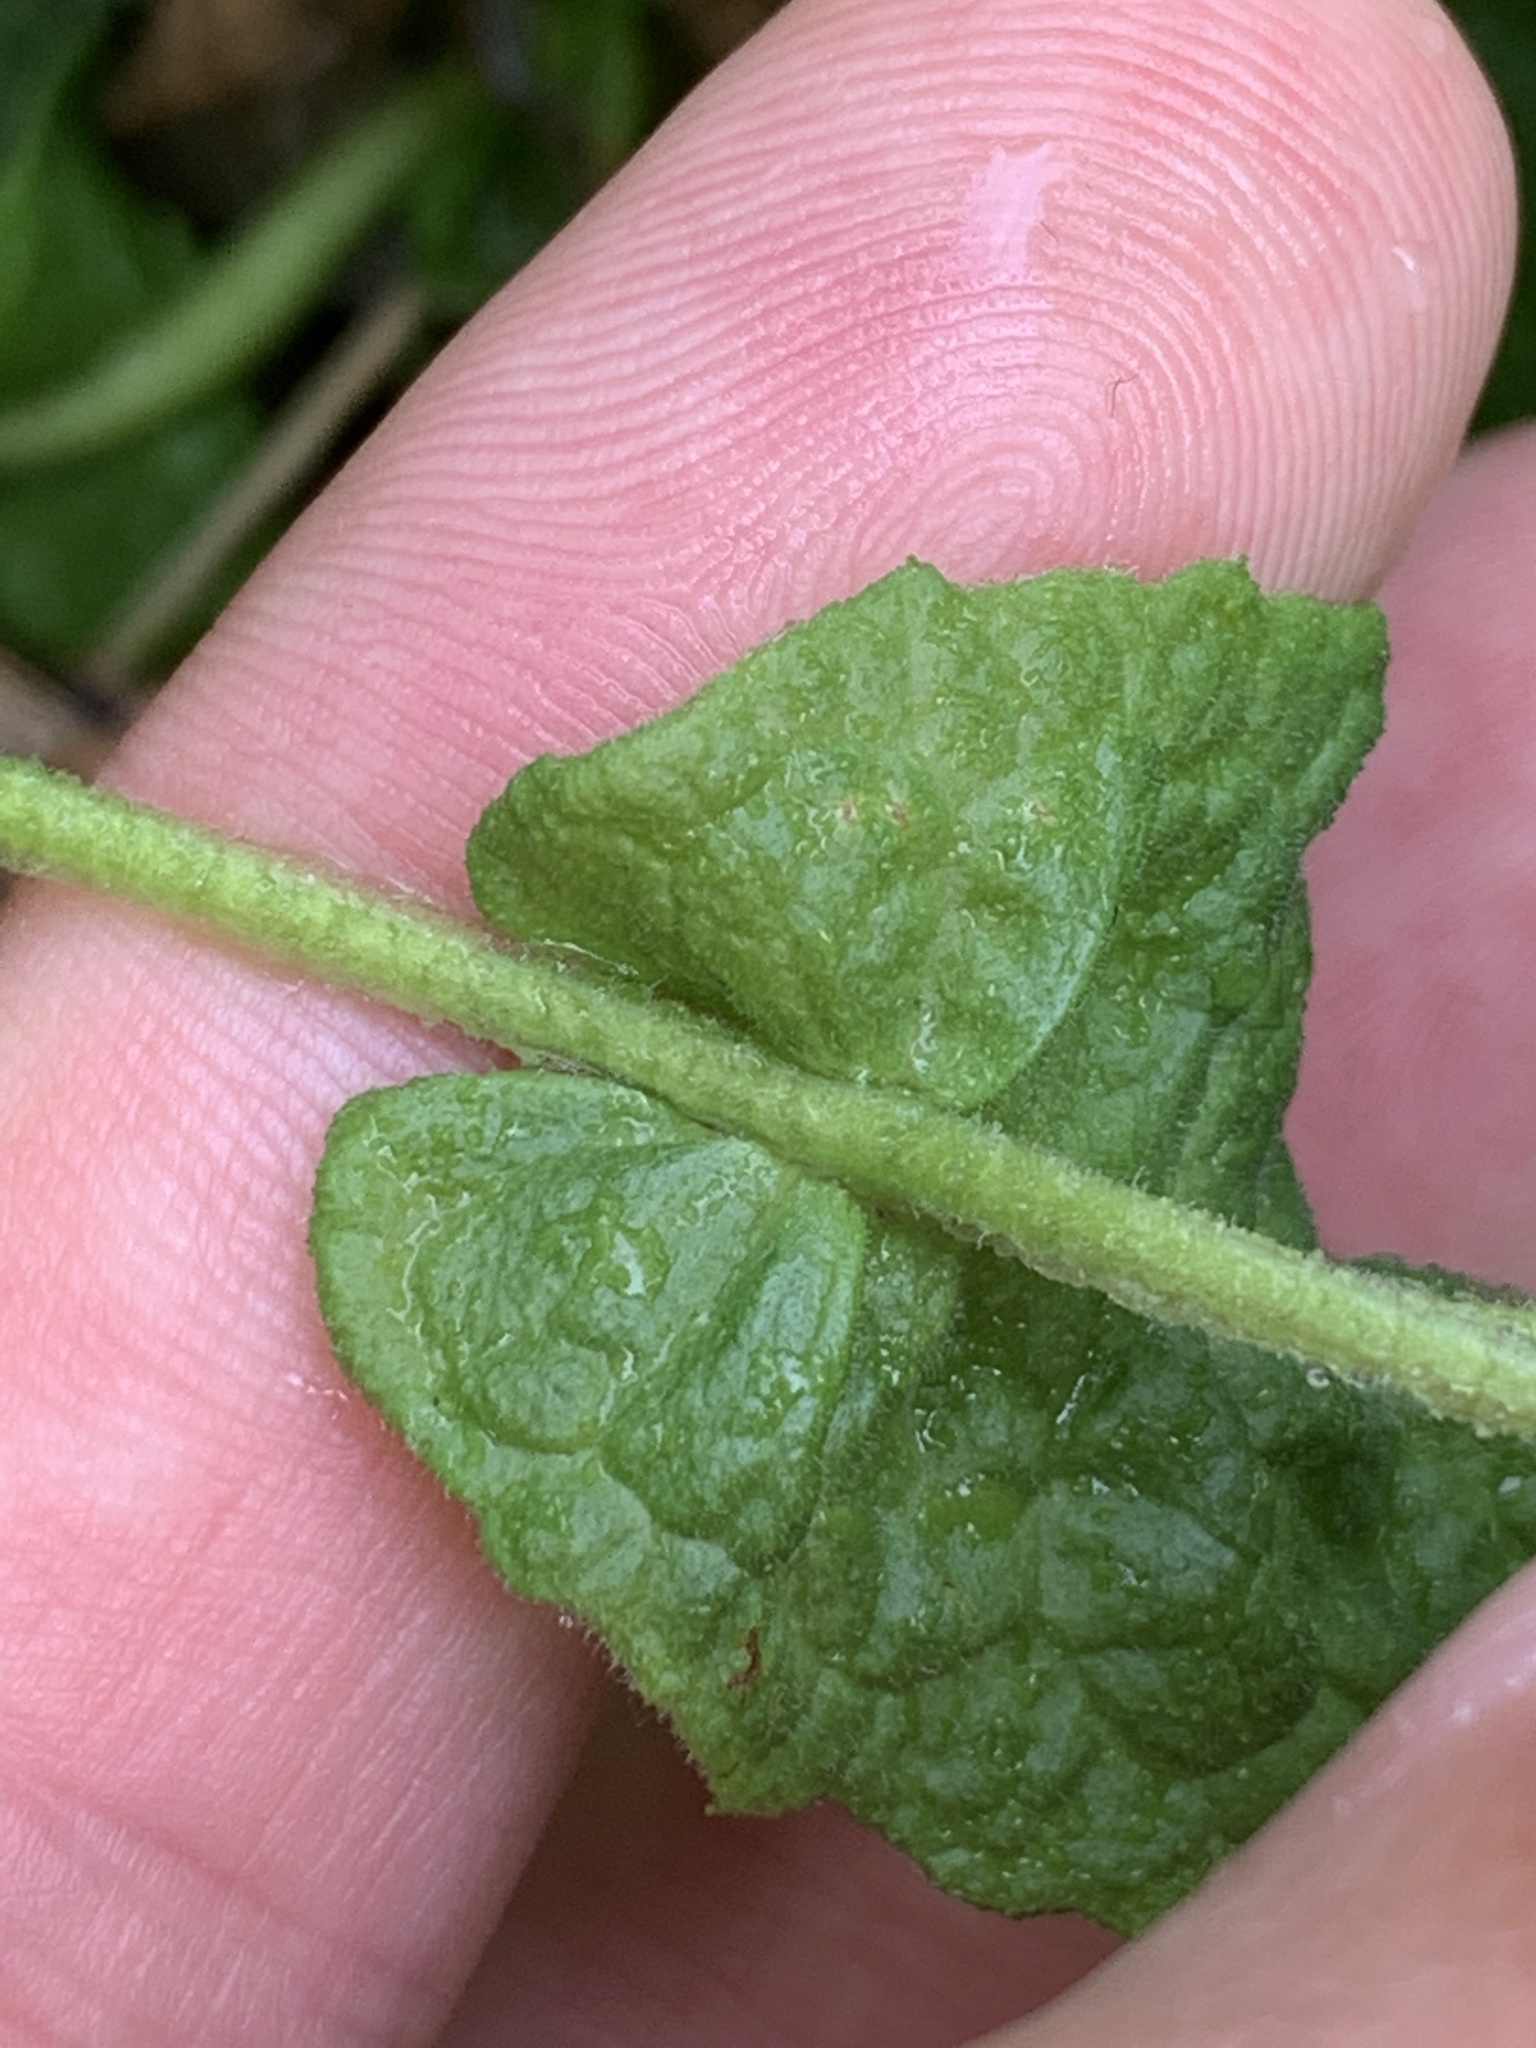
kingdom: Plantae
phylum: Tracheophyta
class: Magnoliopsida
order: Asterales
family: Asteraceae
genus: Pulicaria
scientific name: Pulicaria dysenterica
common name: Common fleabane
